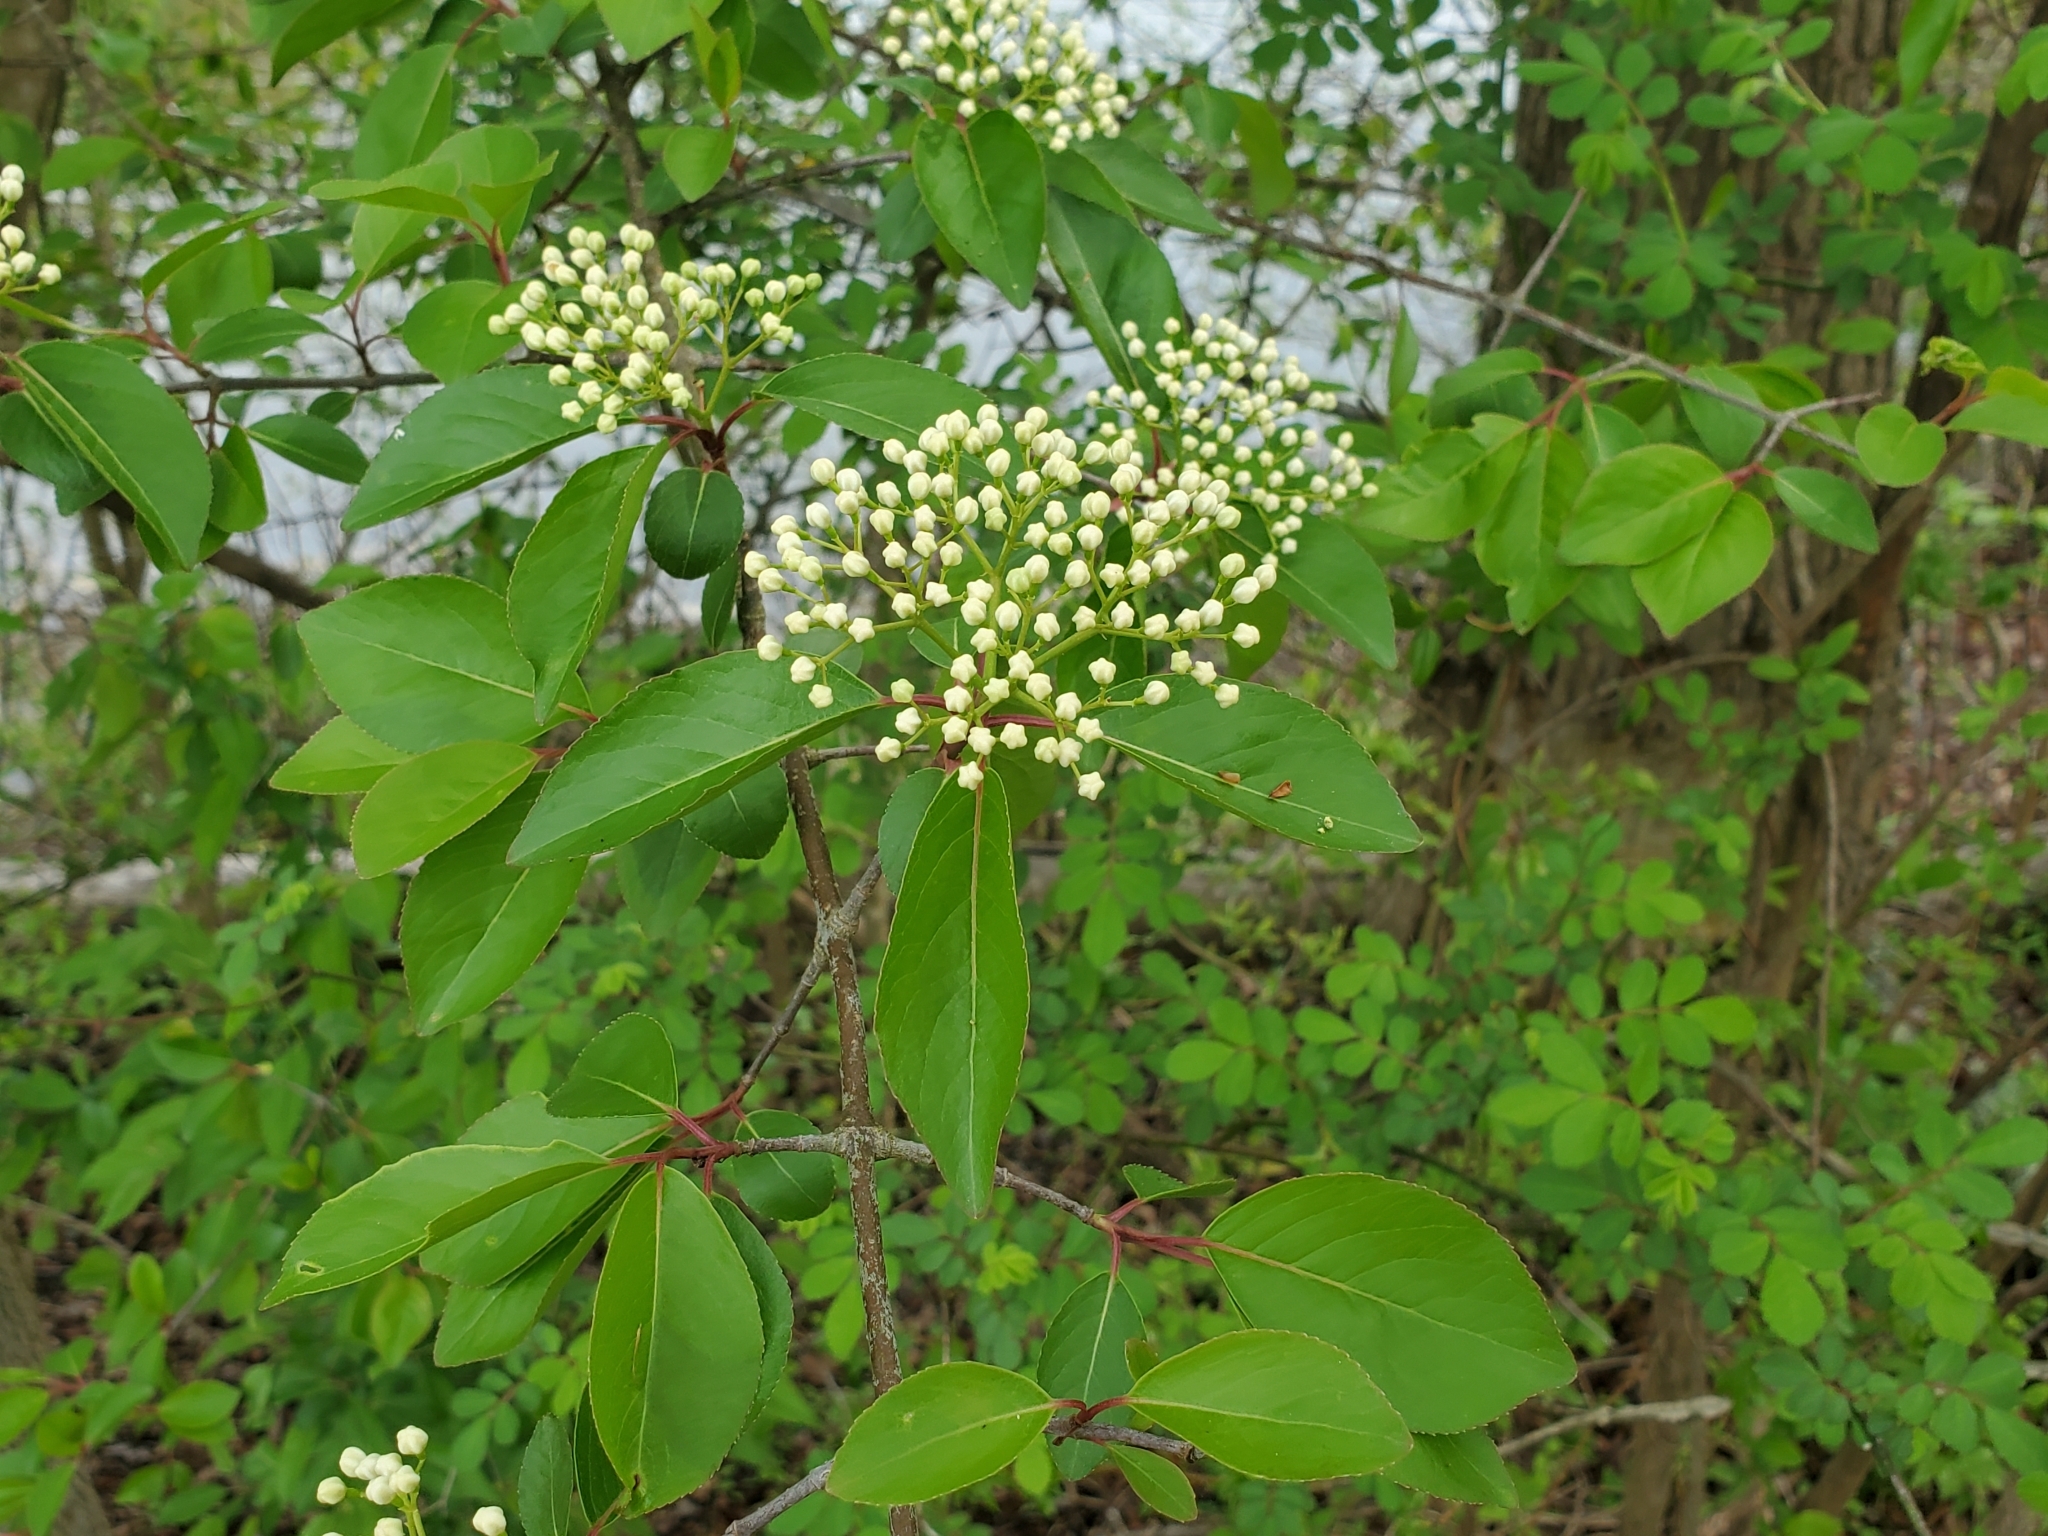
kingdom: Plantae
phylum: Tracheophyta
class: Magnoliopsida
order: Dipsacales
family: Viburnaceae
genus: Viburnum
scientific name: Viburnum prunifolium
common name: Black haw
